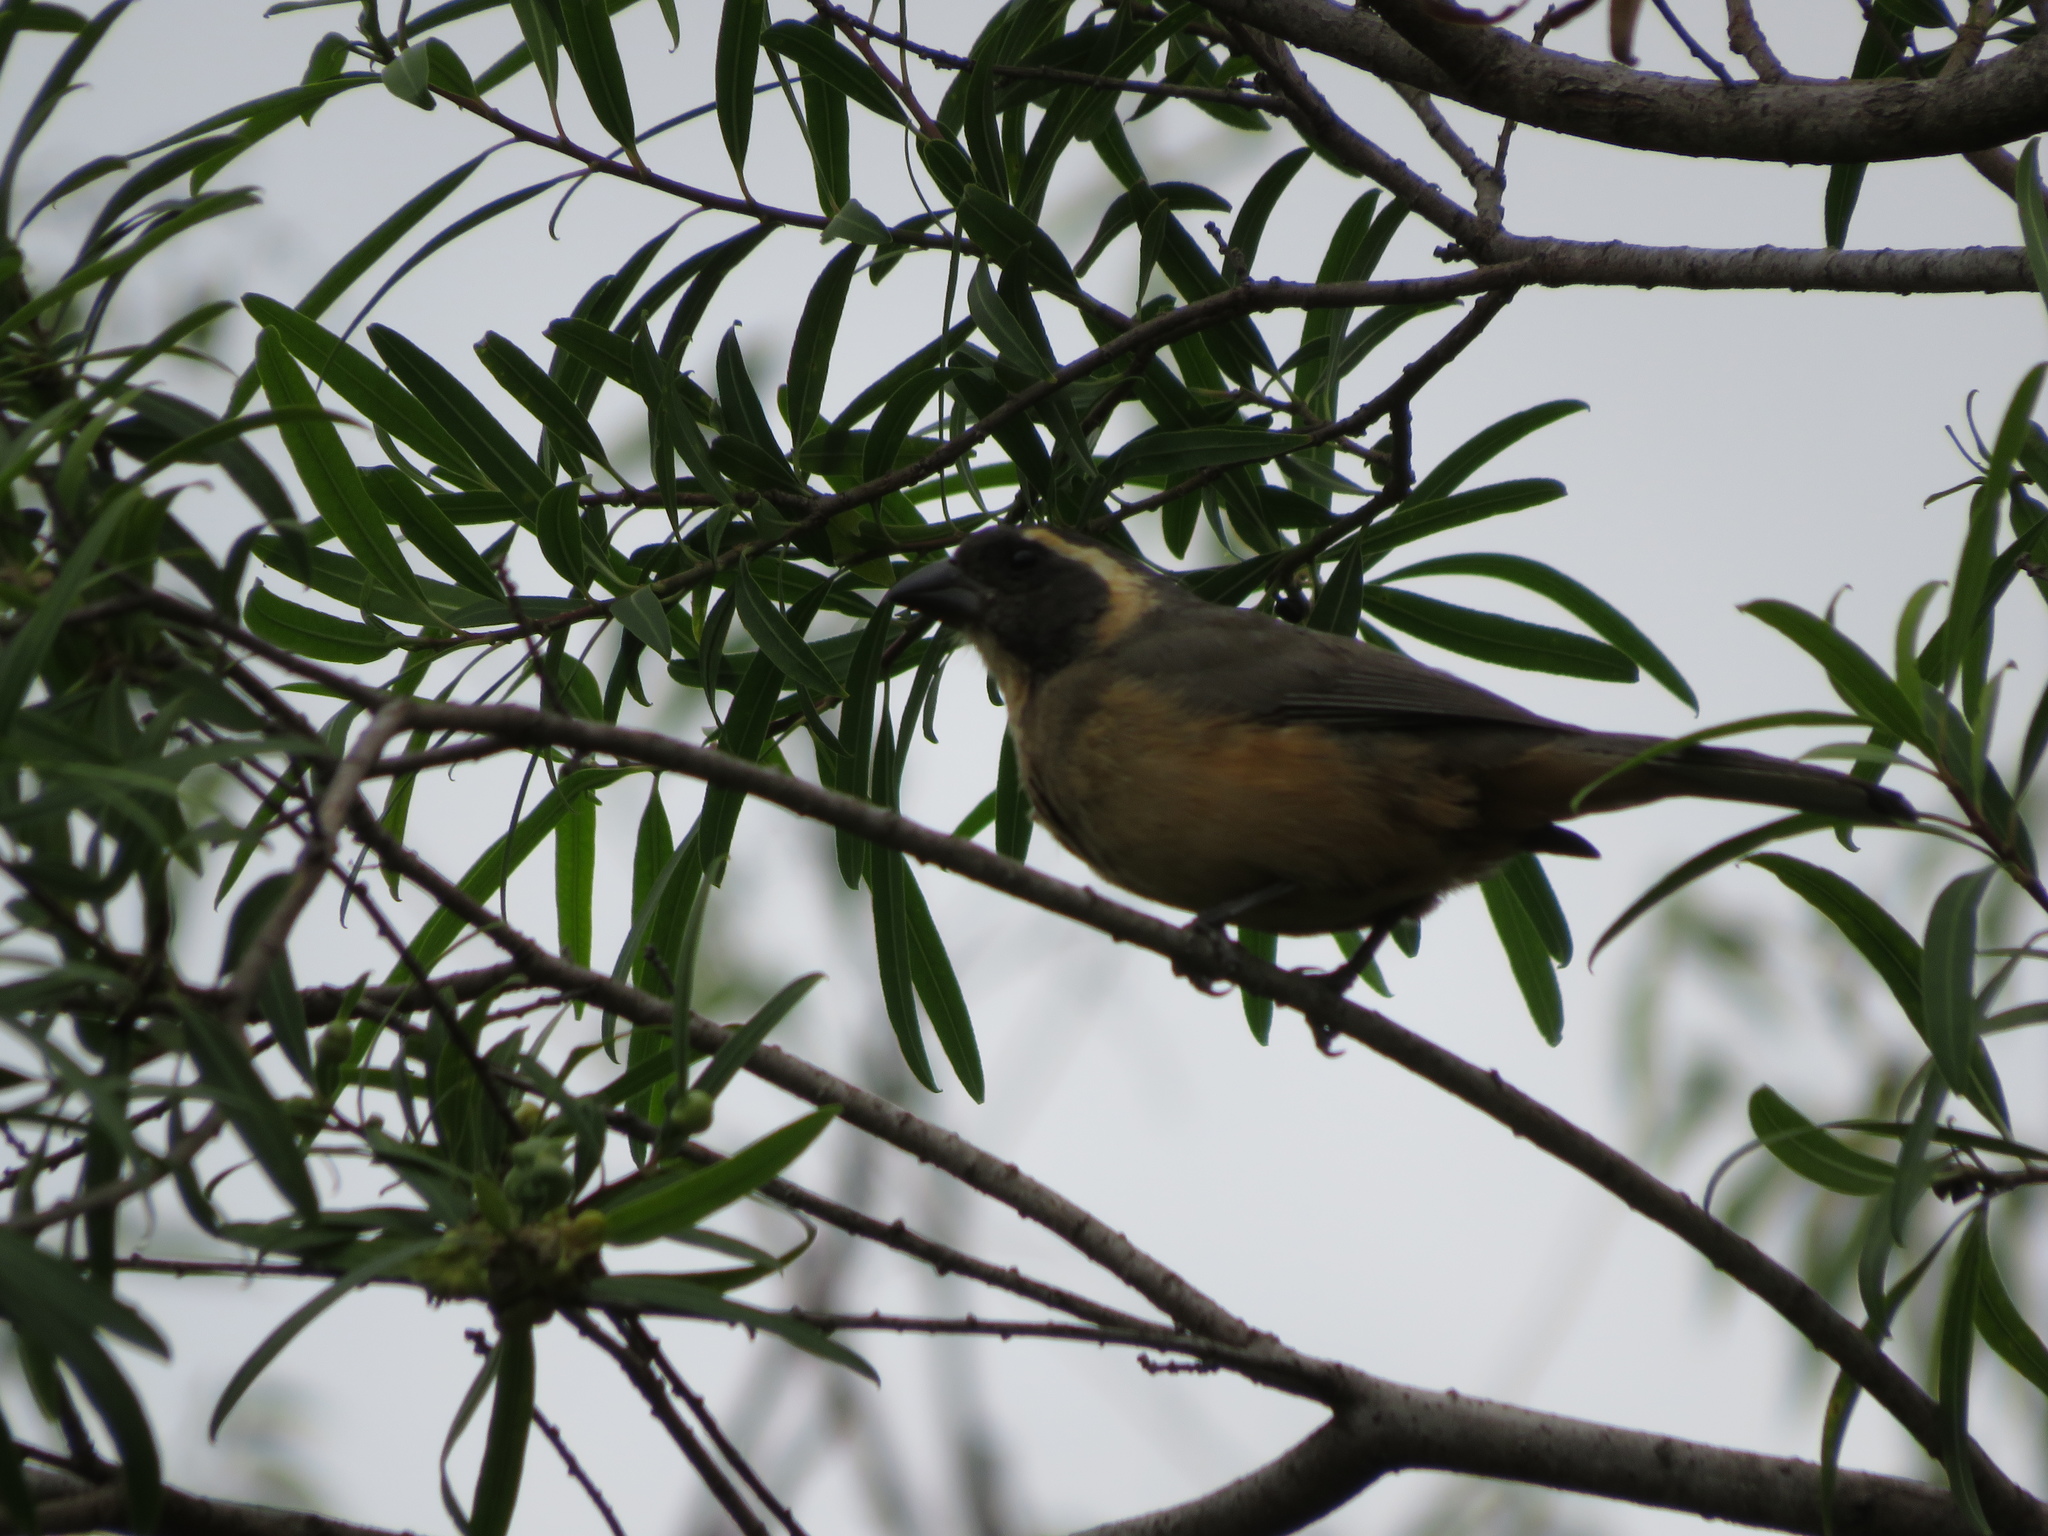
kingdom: Animalia
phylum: Chordata
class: Aves
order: Passeriformes
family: Thraupidae
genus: Saltator
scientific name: Saltator aurantiirostris
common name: Golden-billed saltator
